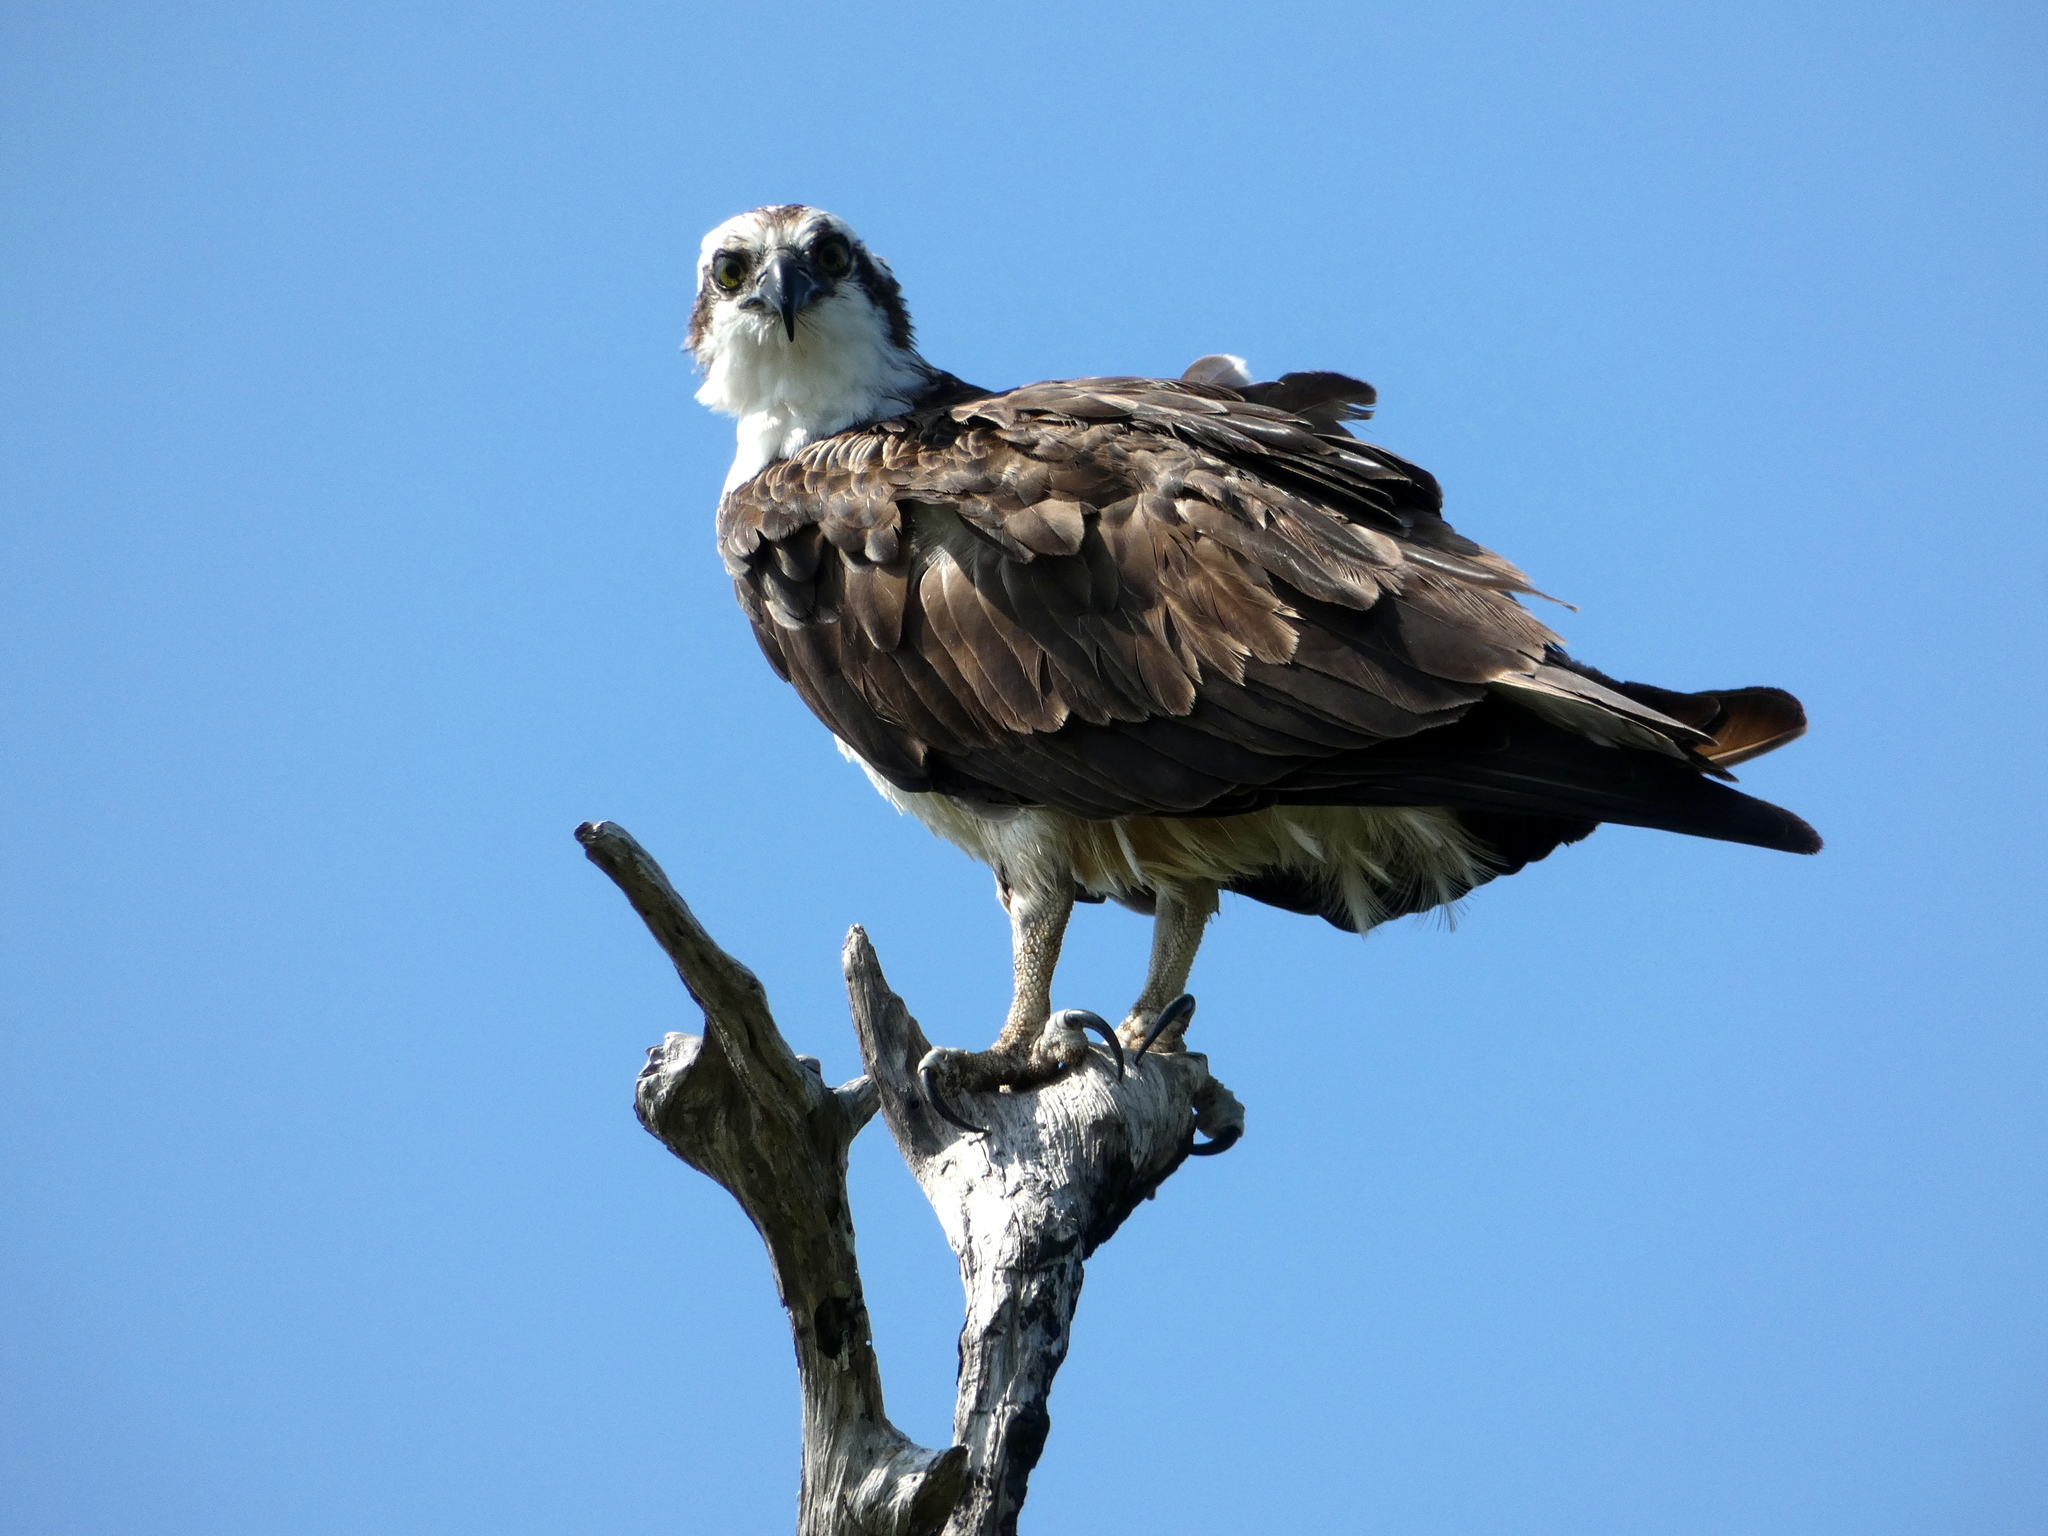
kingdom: Animalia
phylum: Chordata
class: Aves
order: Accipitriformes
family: Pandionidae
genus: Pandion
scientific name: Pandion haliaetus
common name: Osprey
